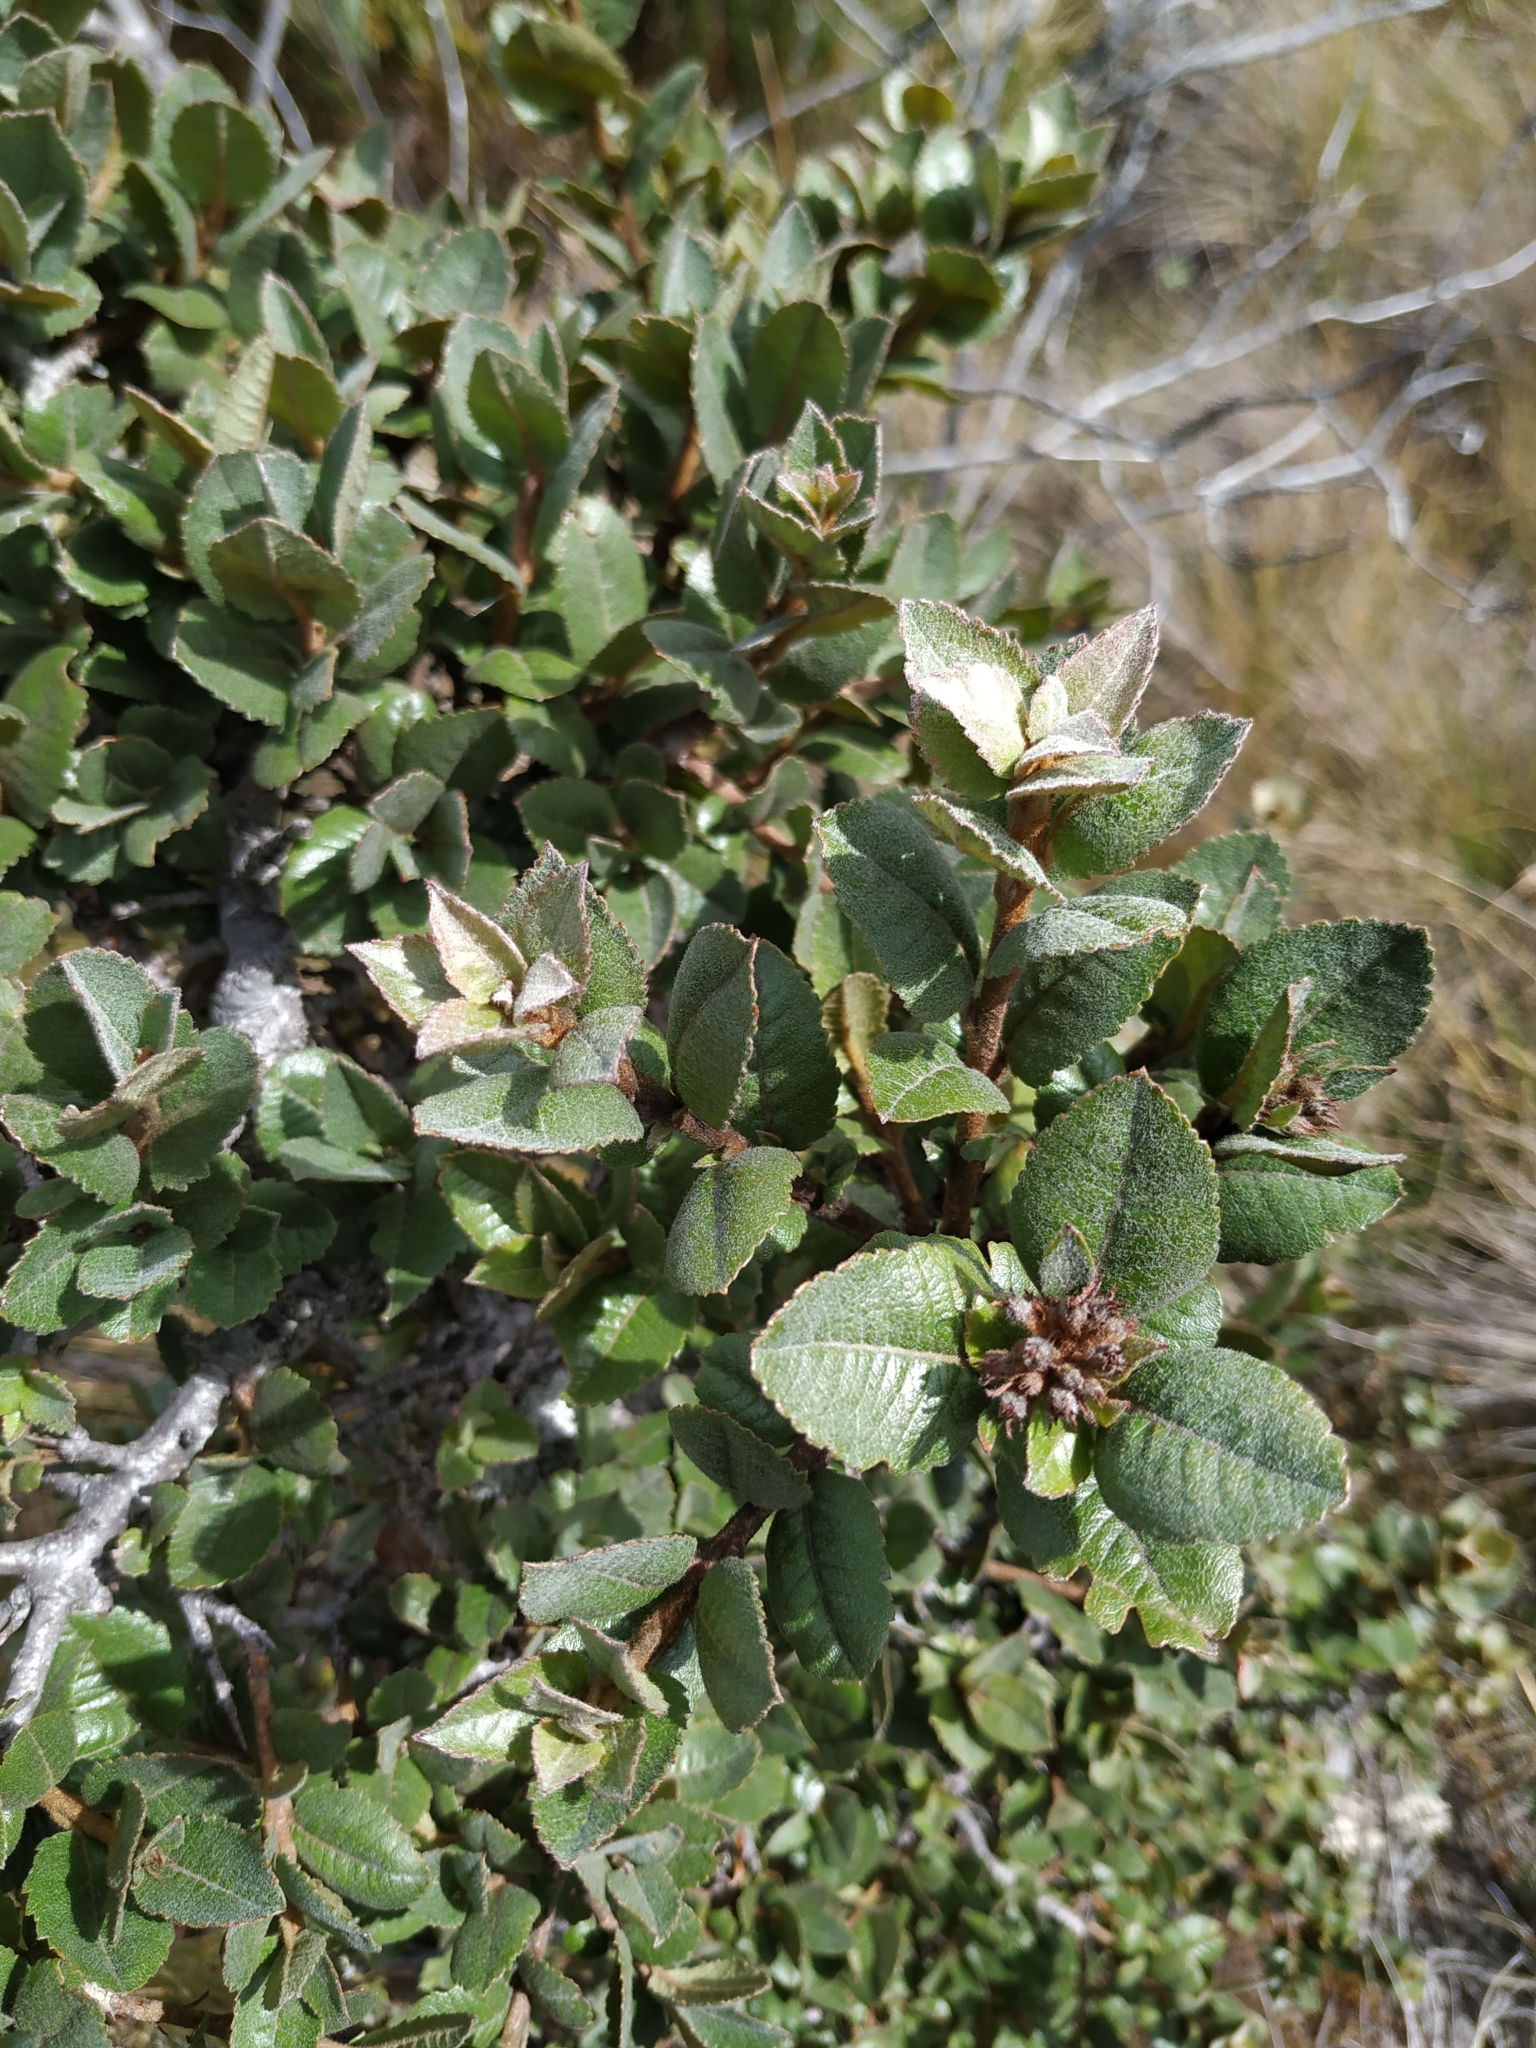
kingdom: Plantae
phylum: Tracheophyta
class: Magnoliopsida
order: Rosales
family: Rosaceae
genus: Hesperomeles
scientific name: Hesperomeles goudotiana
